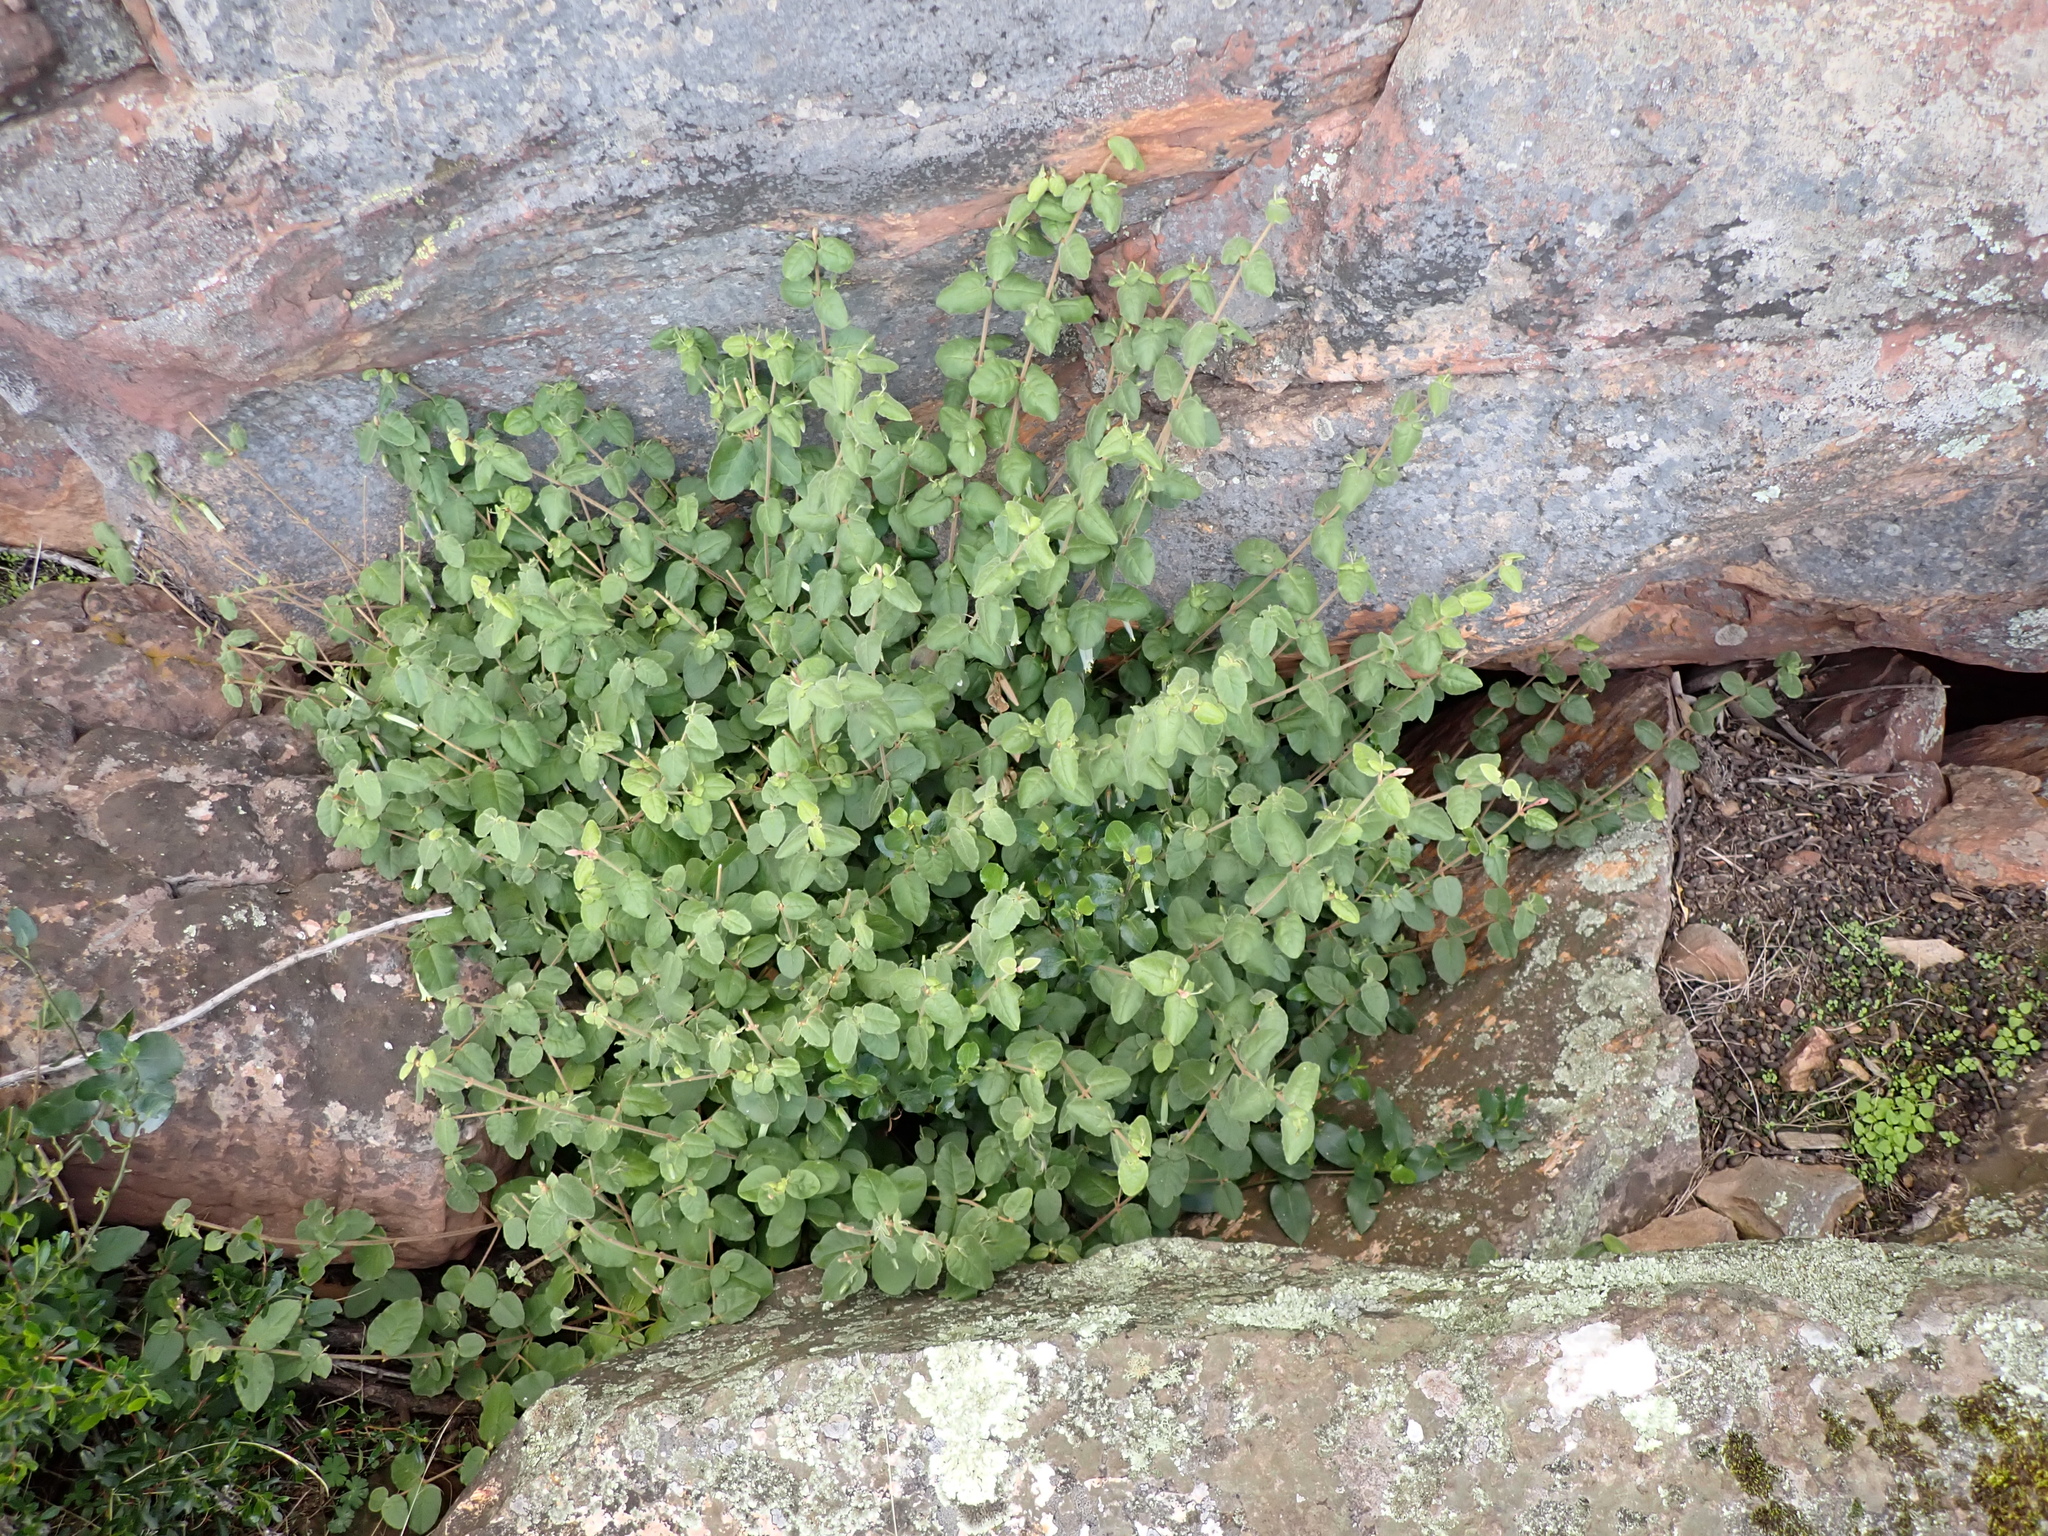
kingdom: Plantae
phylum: Tracheophyta
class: Magnoliopsida
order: Sapindales
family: Rutaceae
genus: Correa
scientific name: Correa aemula
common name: Hairy correa
